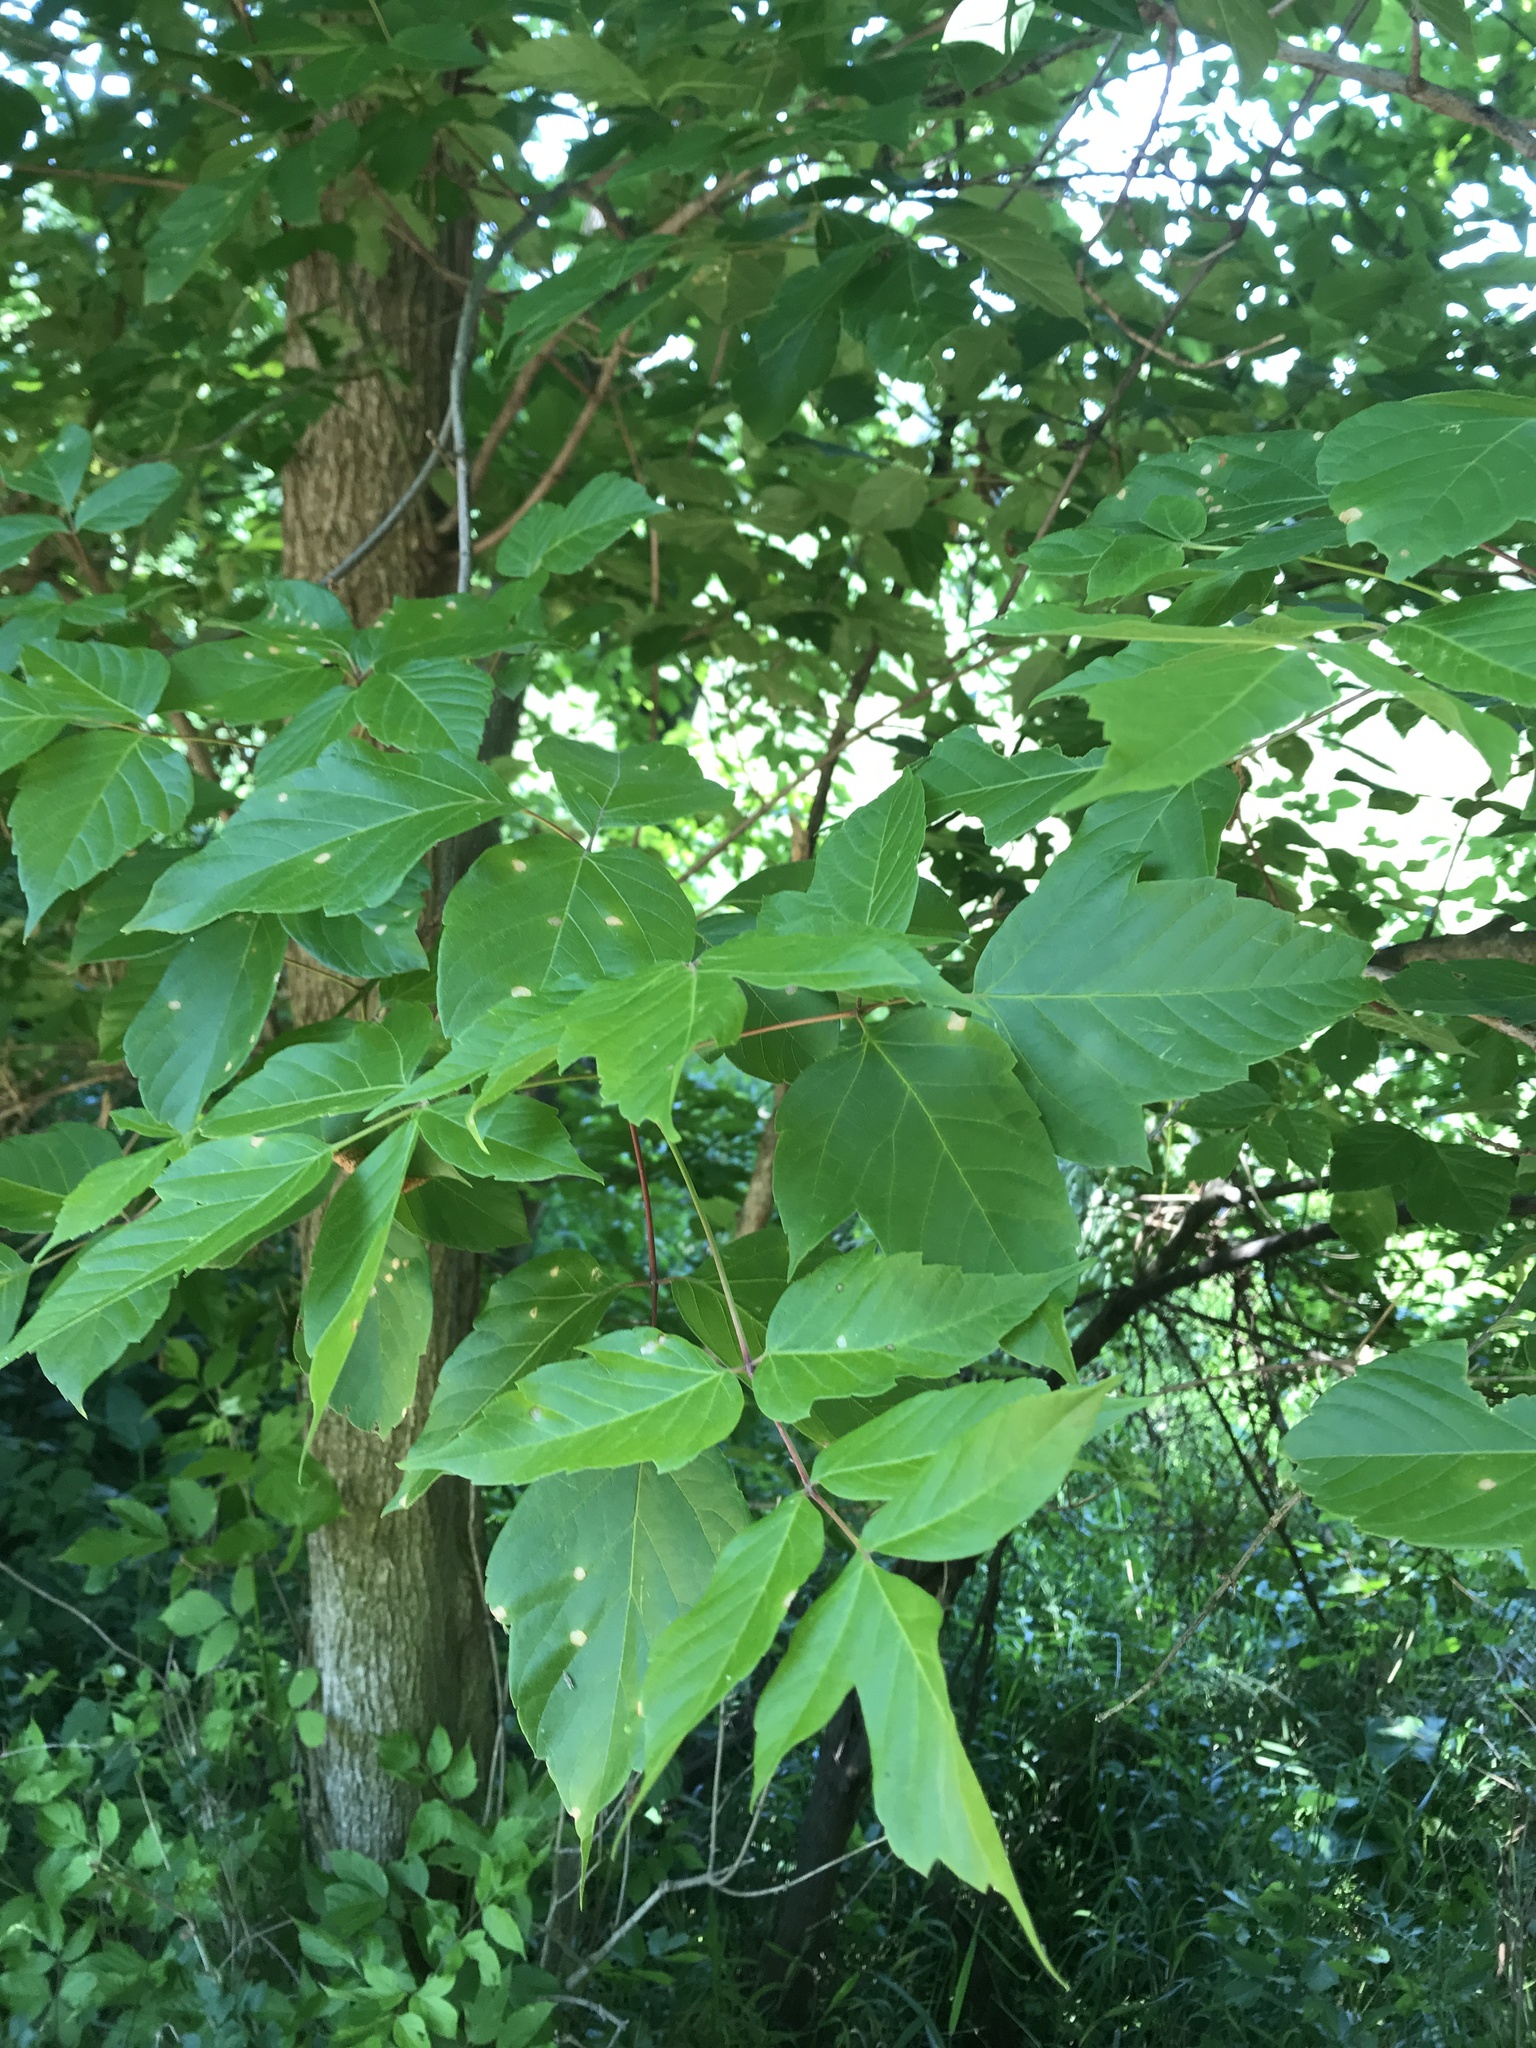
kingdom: Plantae
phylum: Tracheophyta
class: Magnoliopsida
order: Sapindales
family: Sapindaceae
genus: Acer
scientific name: Acer negundo
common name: Ashleaf maple
